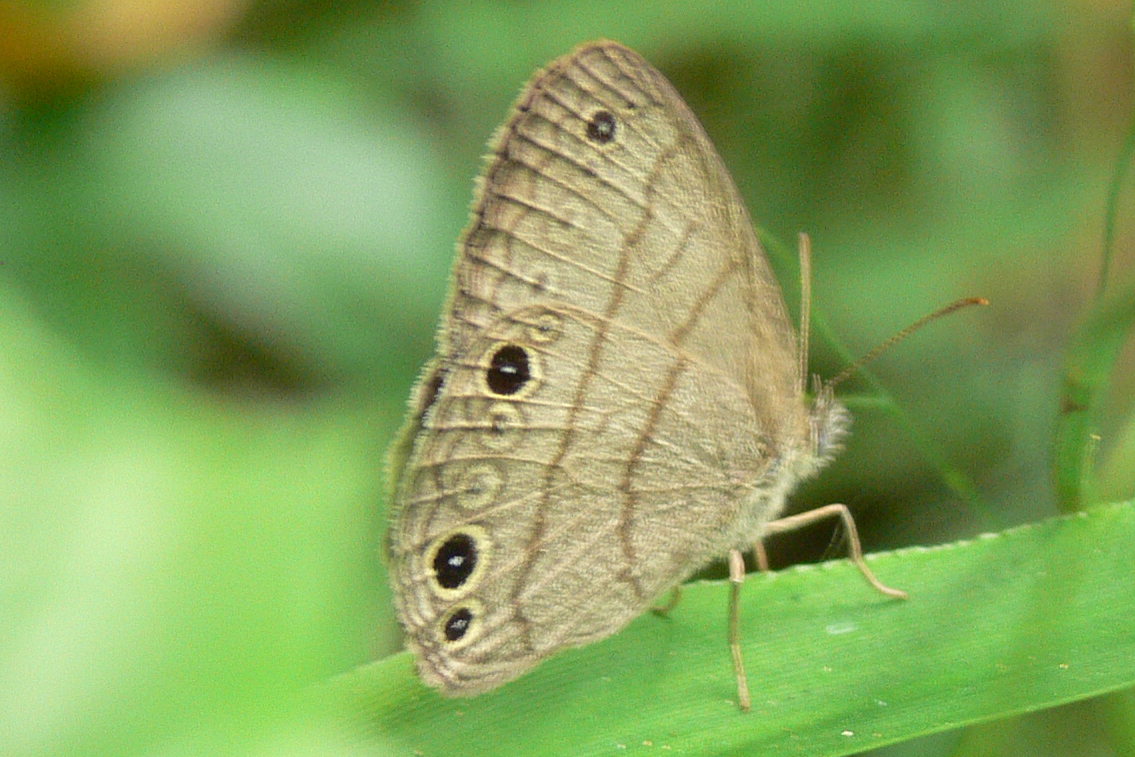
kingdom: Animalia
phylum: Arthropoda
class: Insecta
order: Lepidoptera
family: Nymphalidae
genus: Hermeuptychia
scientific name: Hermeuptychia hermes
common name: Hermes satyr
